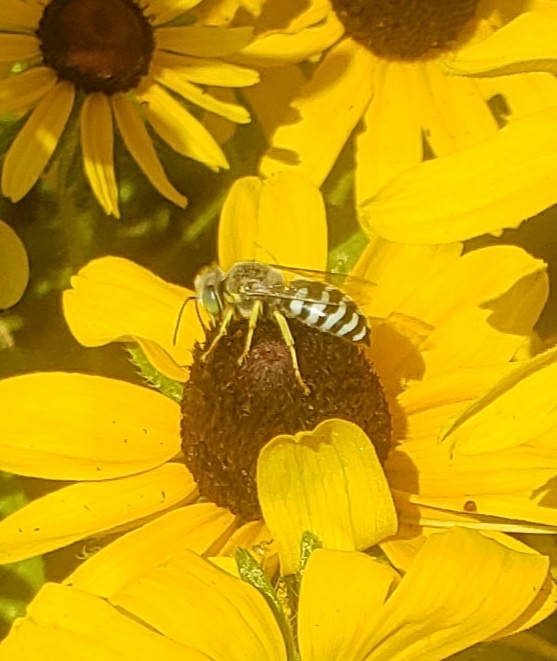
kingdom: Animalia
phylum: Arthropoda
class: Insecta
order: Hymenoptera
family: Crabronidae
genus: Bembix
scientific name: Bembix americana
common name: American sand wasp
